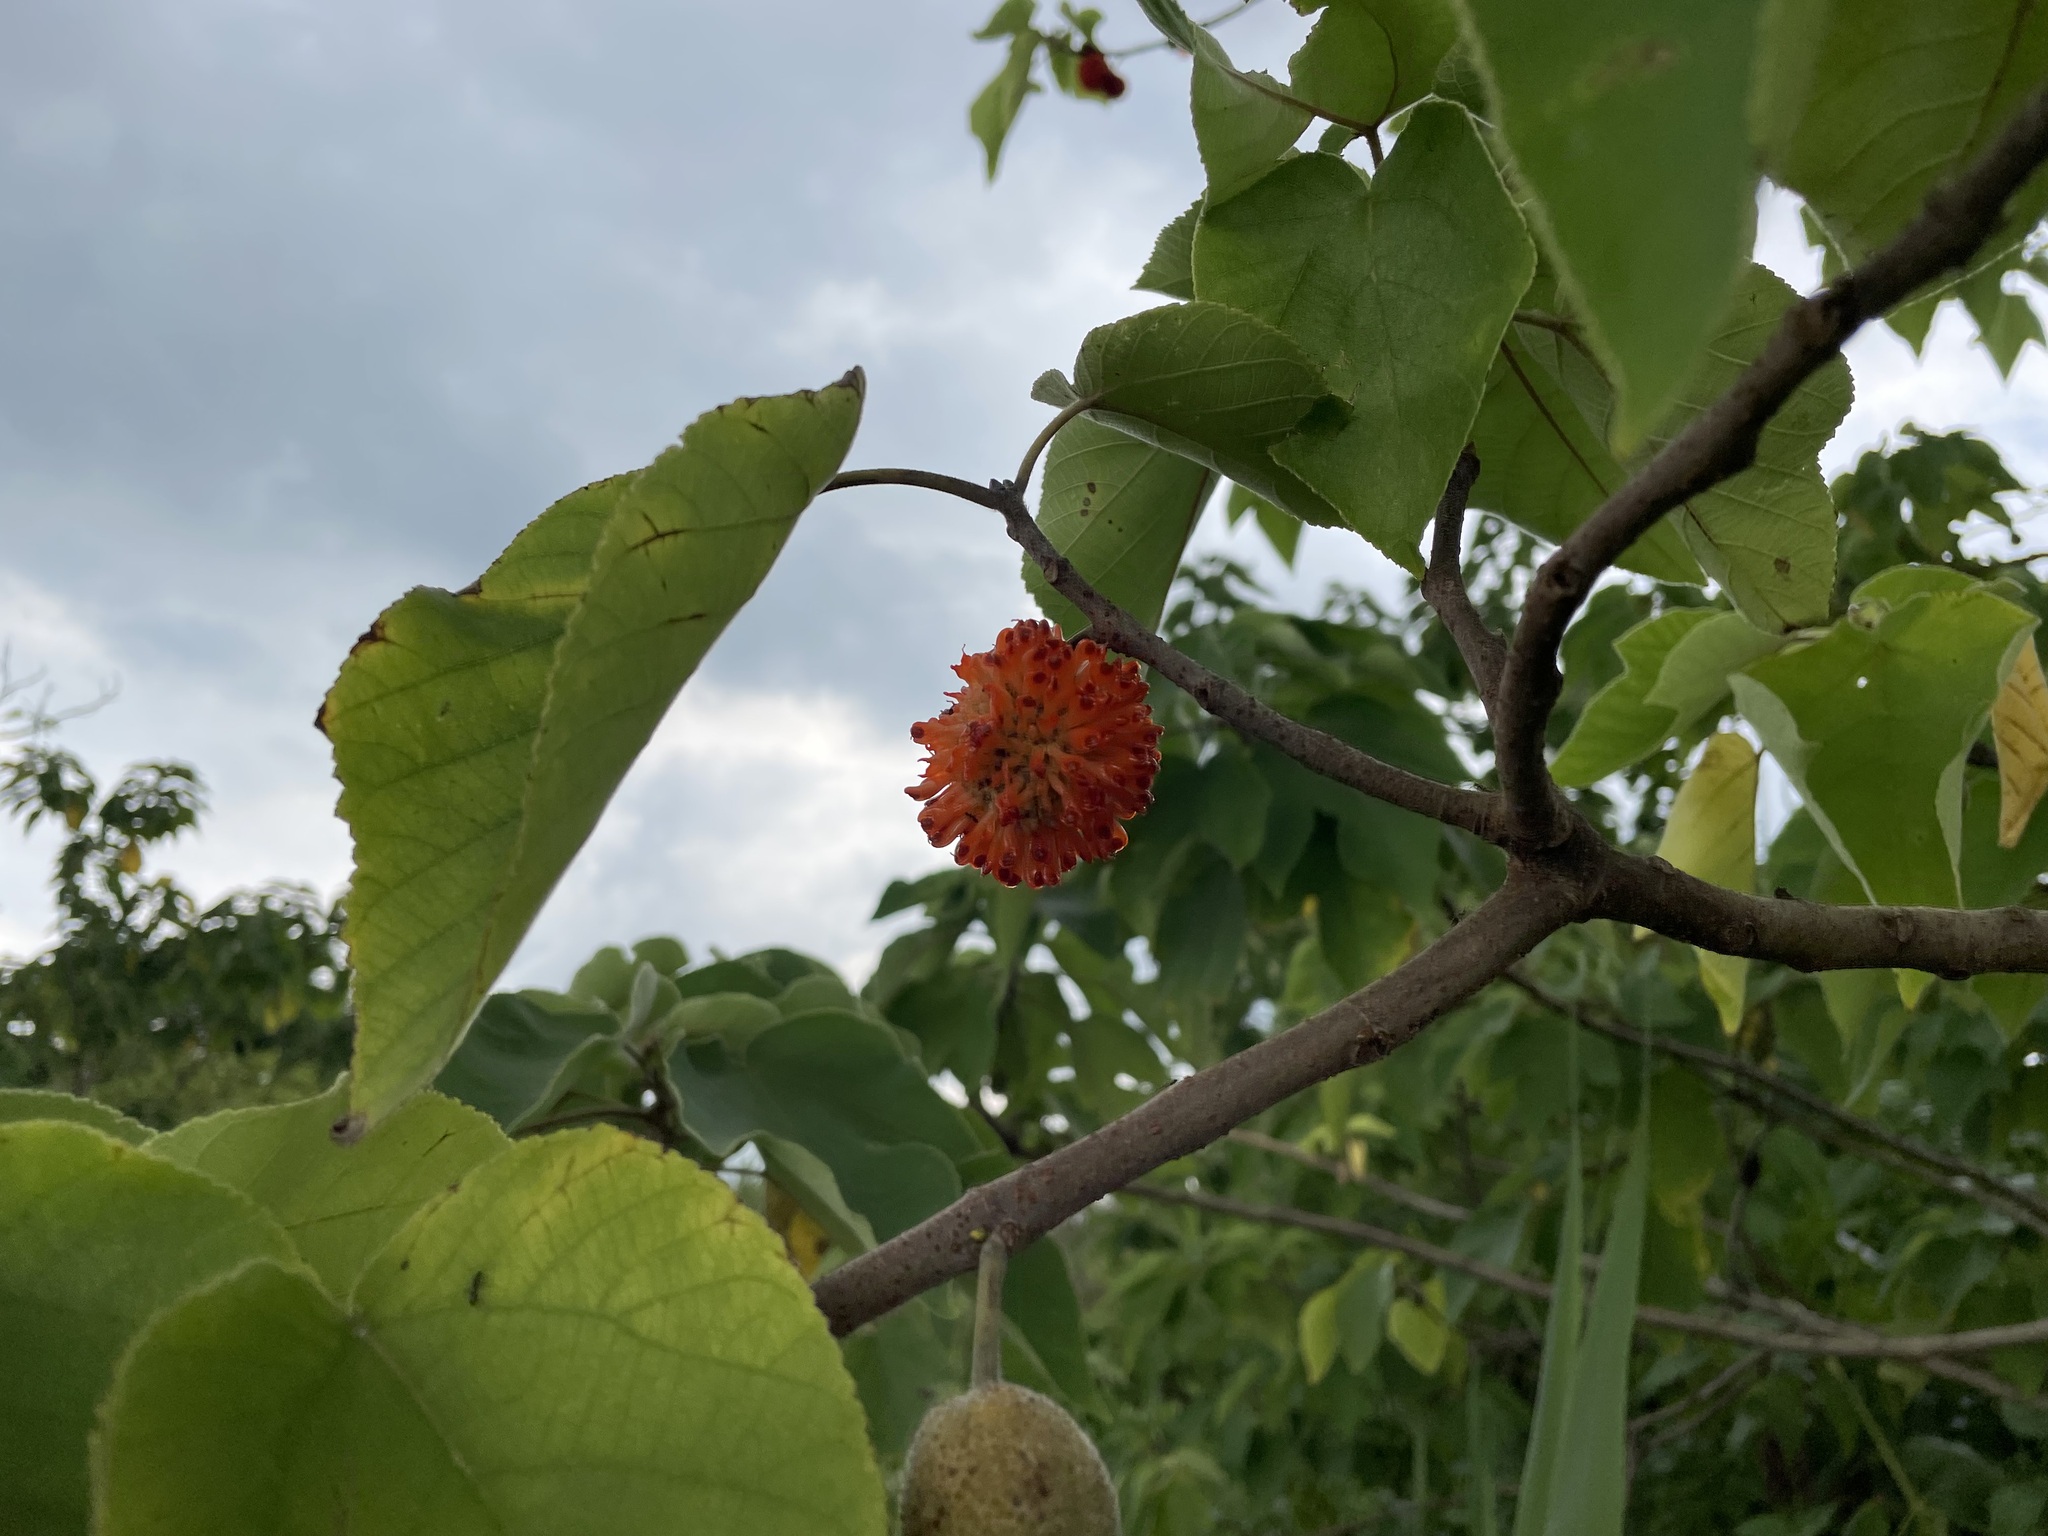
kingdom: Plantae
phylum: Tracheophyta
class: Magnoliopsida
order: Rosales
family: Moraceae
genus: Broussonetia
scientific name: Broussonetia papyrifera
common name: Paper mulberry
